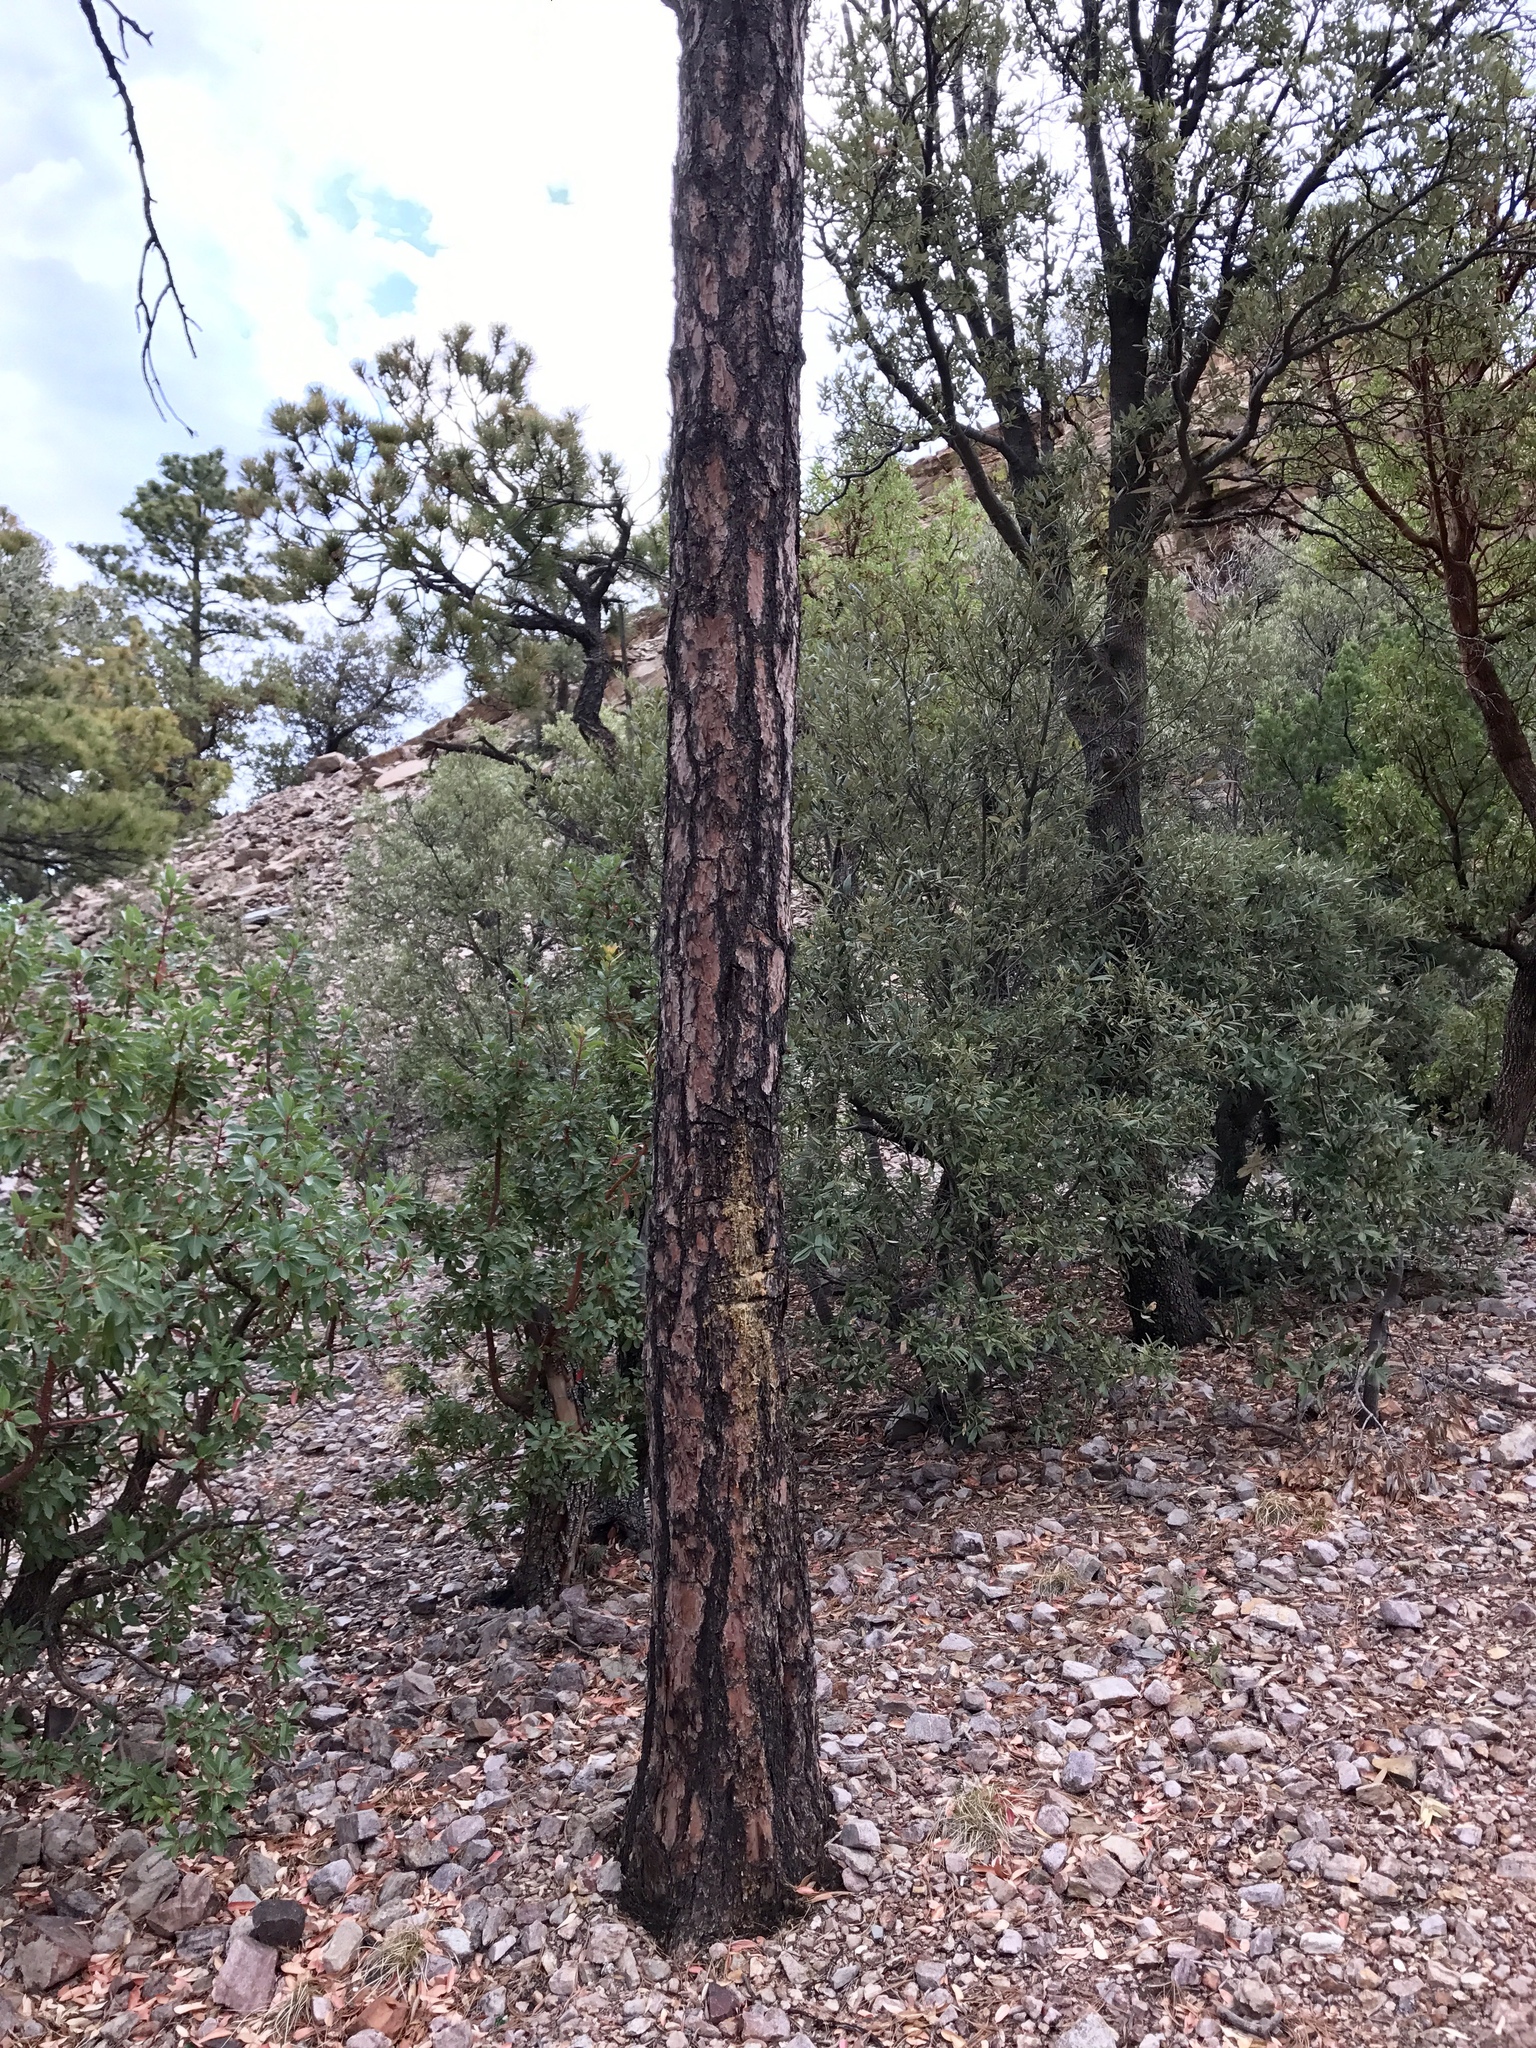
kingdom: Plantae
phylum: Tracheophyta
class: Pinopsida
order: Pinales
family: Pinaceae
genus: Pinus
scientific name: Pinus engelmannii
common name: Apache pine
